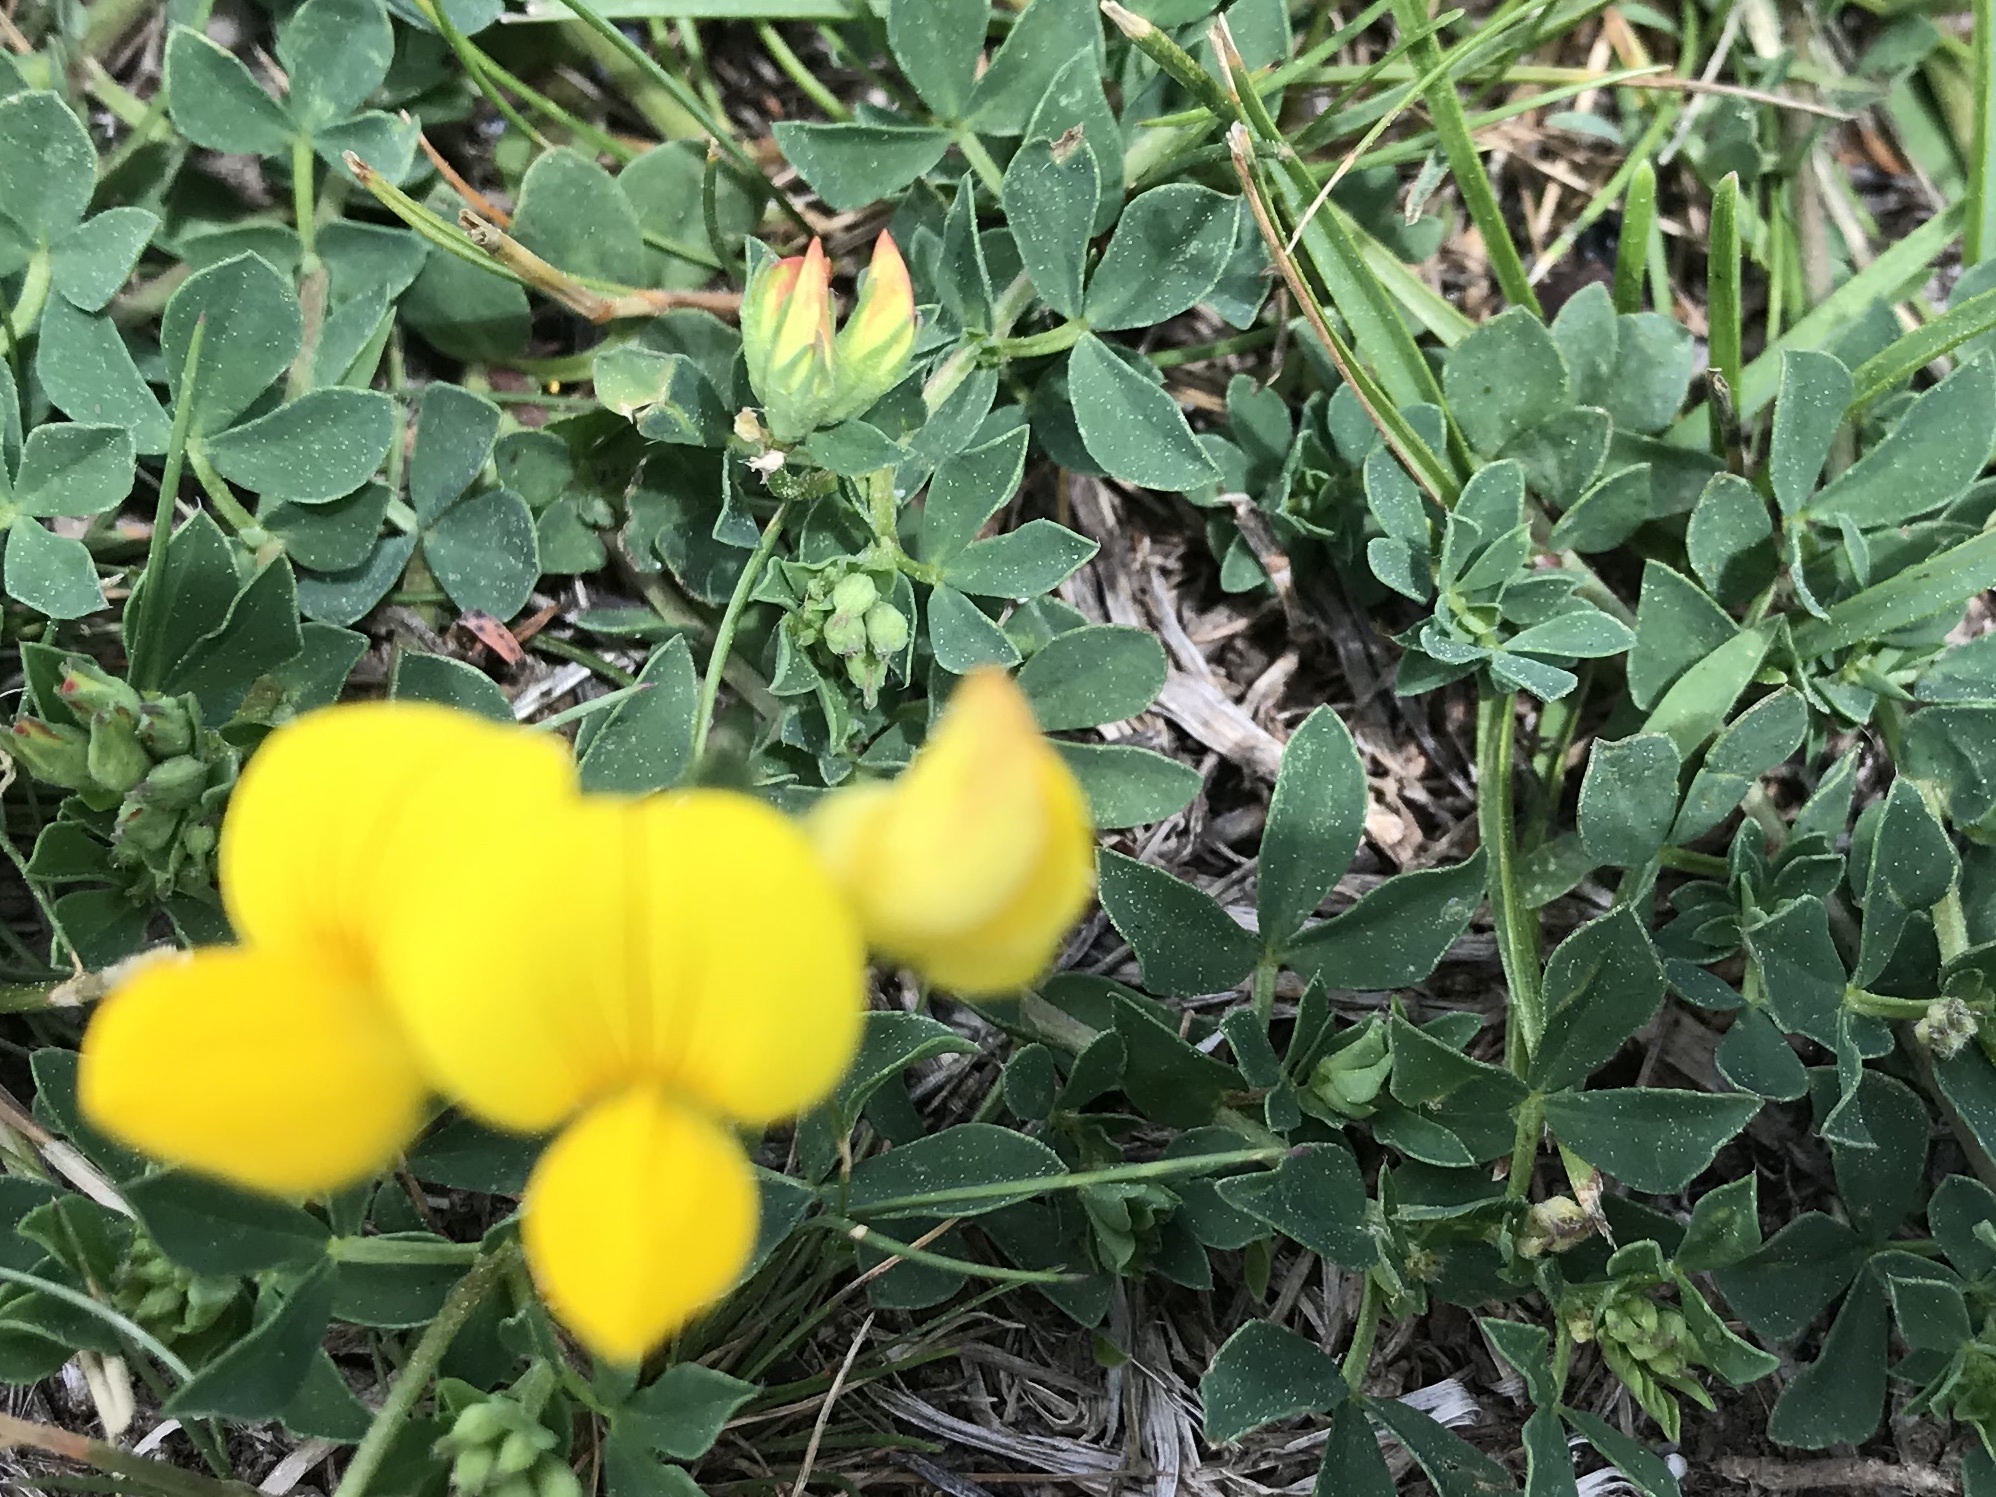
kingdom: Plantae
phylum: Tracheophyta
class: Magnoliopsida
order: Fabales
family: Fabaceae
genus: Lotus
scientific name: Lotus corniculatus
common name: Common bird's-foot-trefoil
